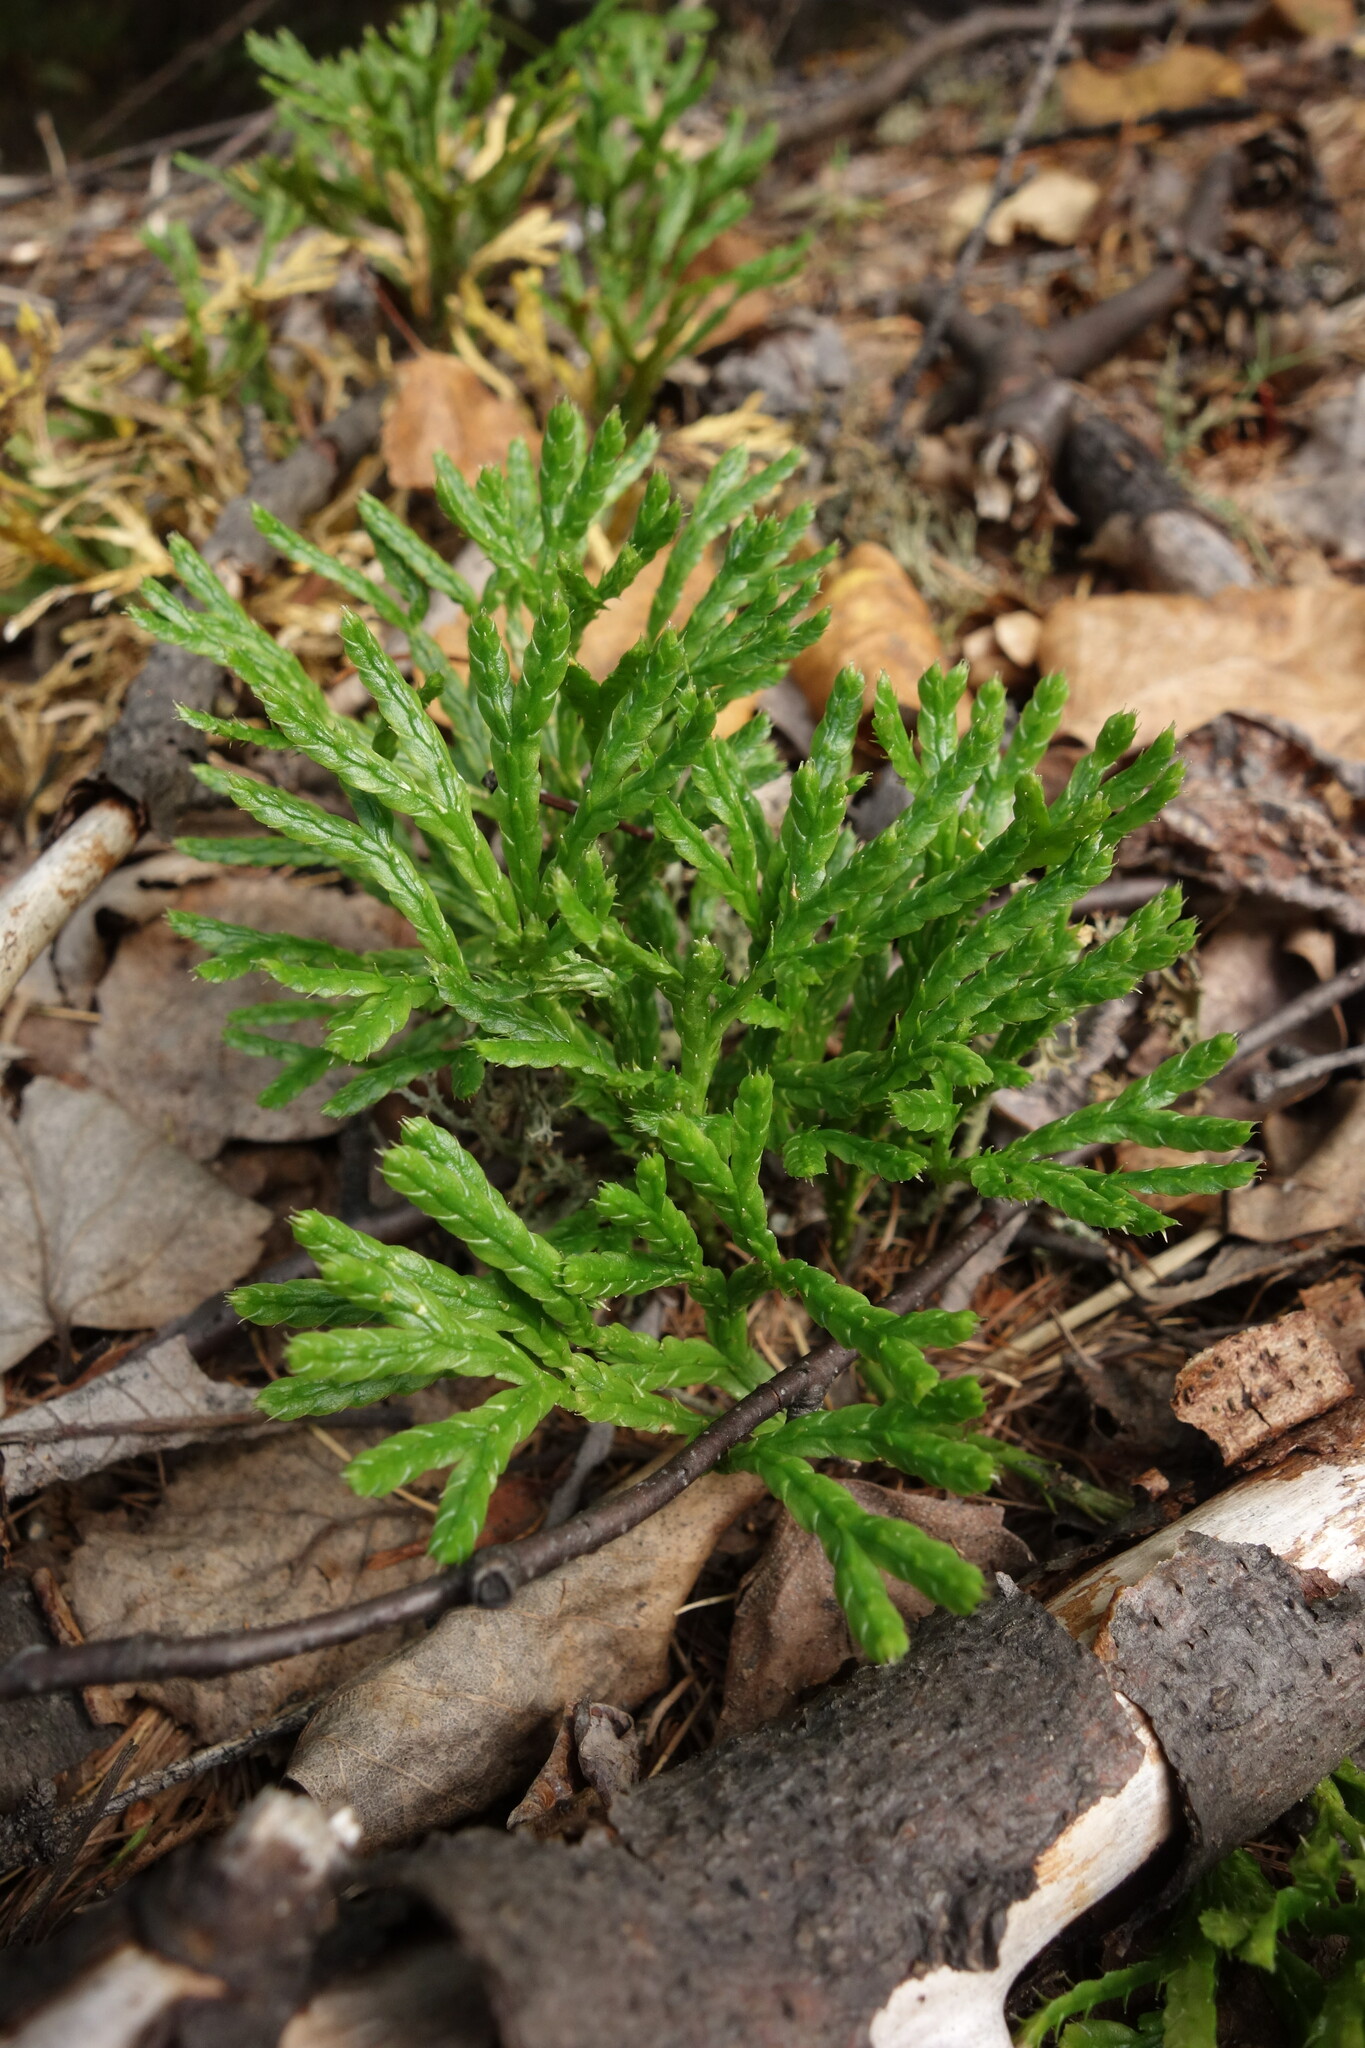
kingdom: Plantae
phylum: Tracheophyta
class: Lycopodiopsida
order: Lycopodiales
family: Lycopodiaceae
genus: Diphasiastrum
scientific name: Diphasiastrum complanatum
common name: Northern running-pine
